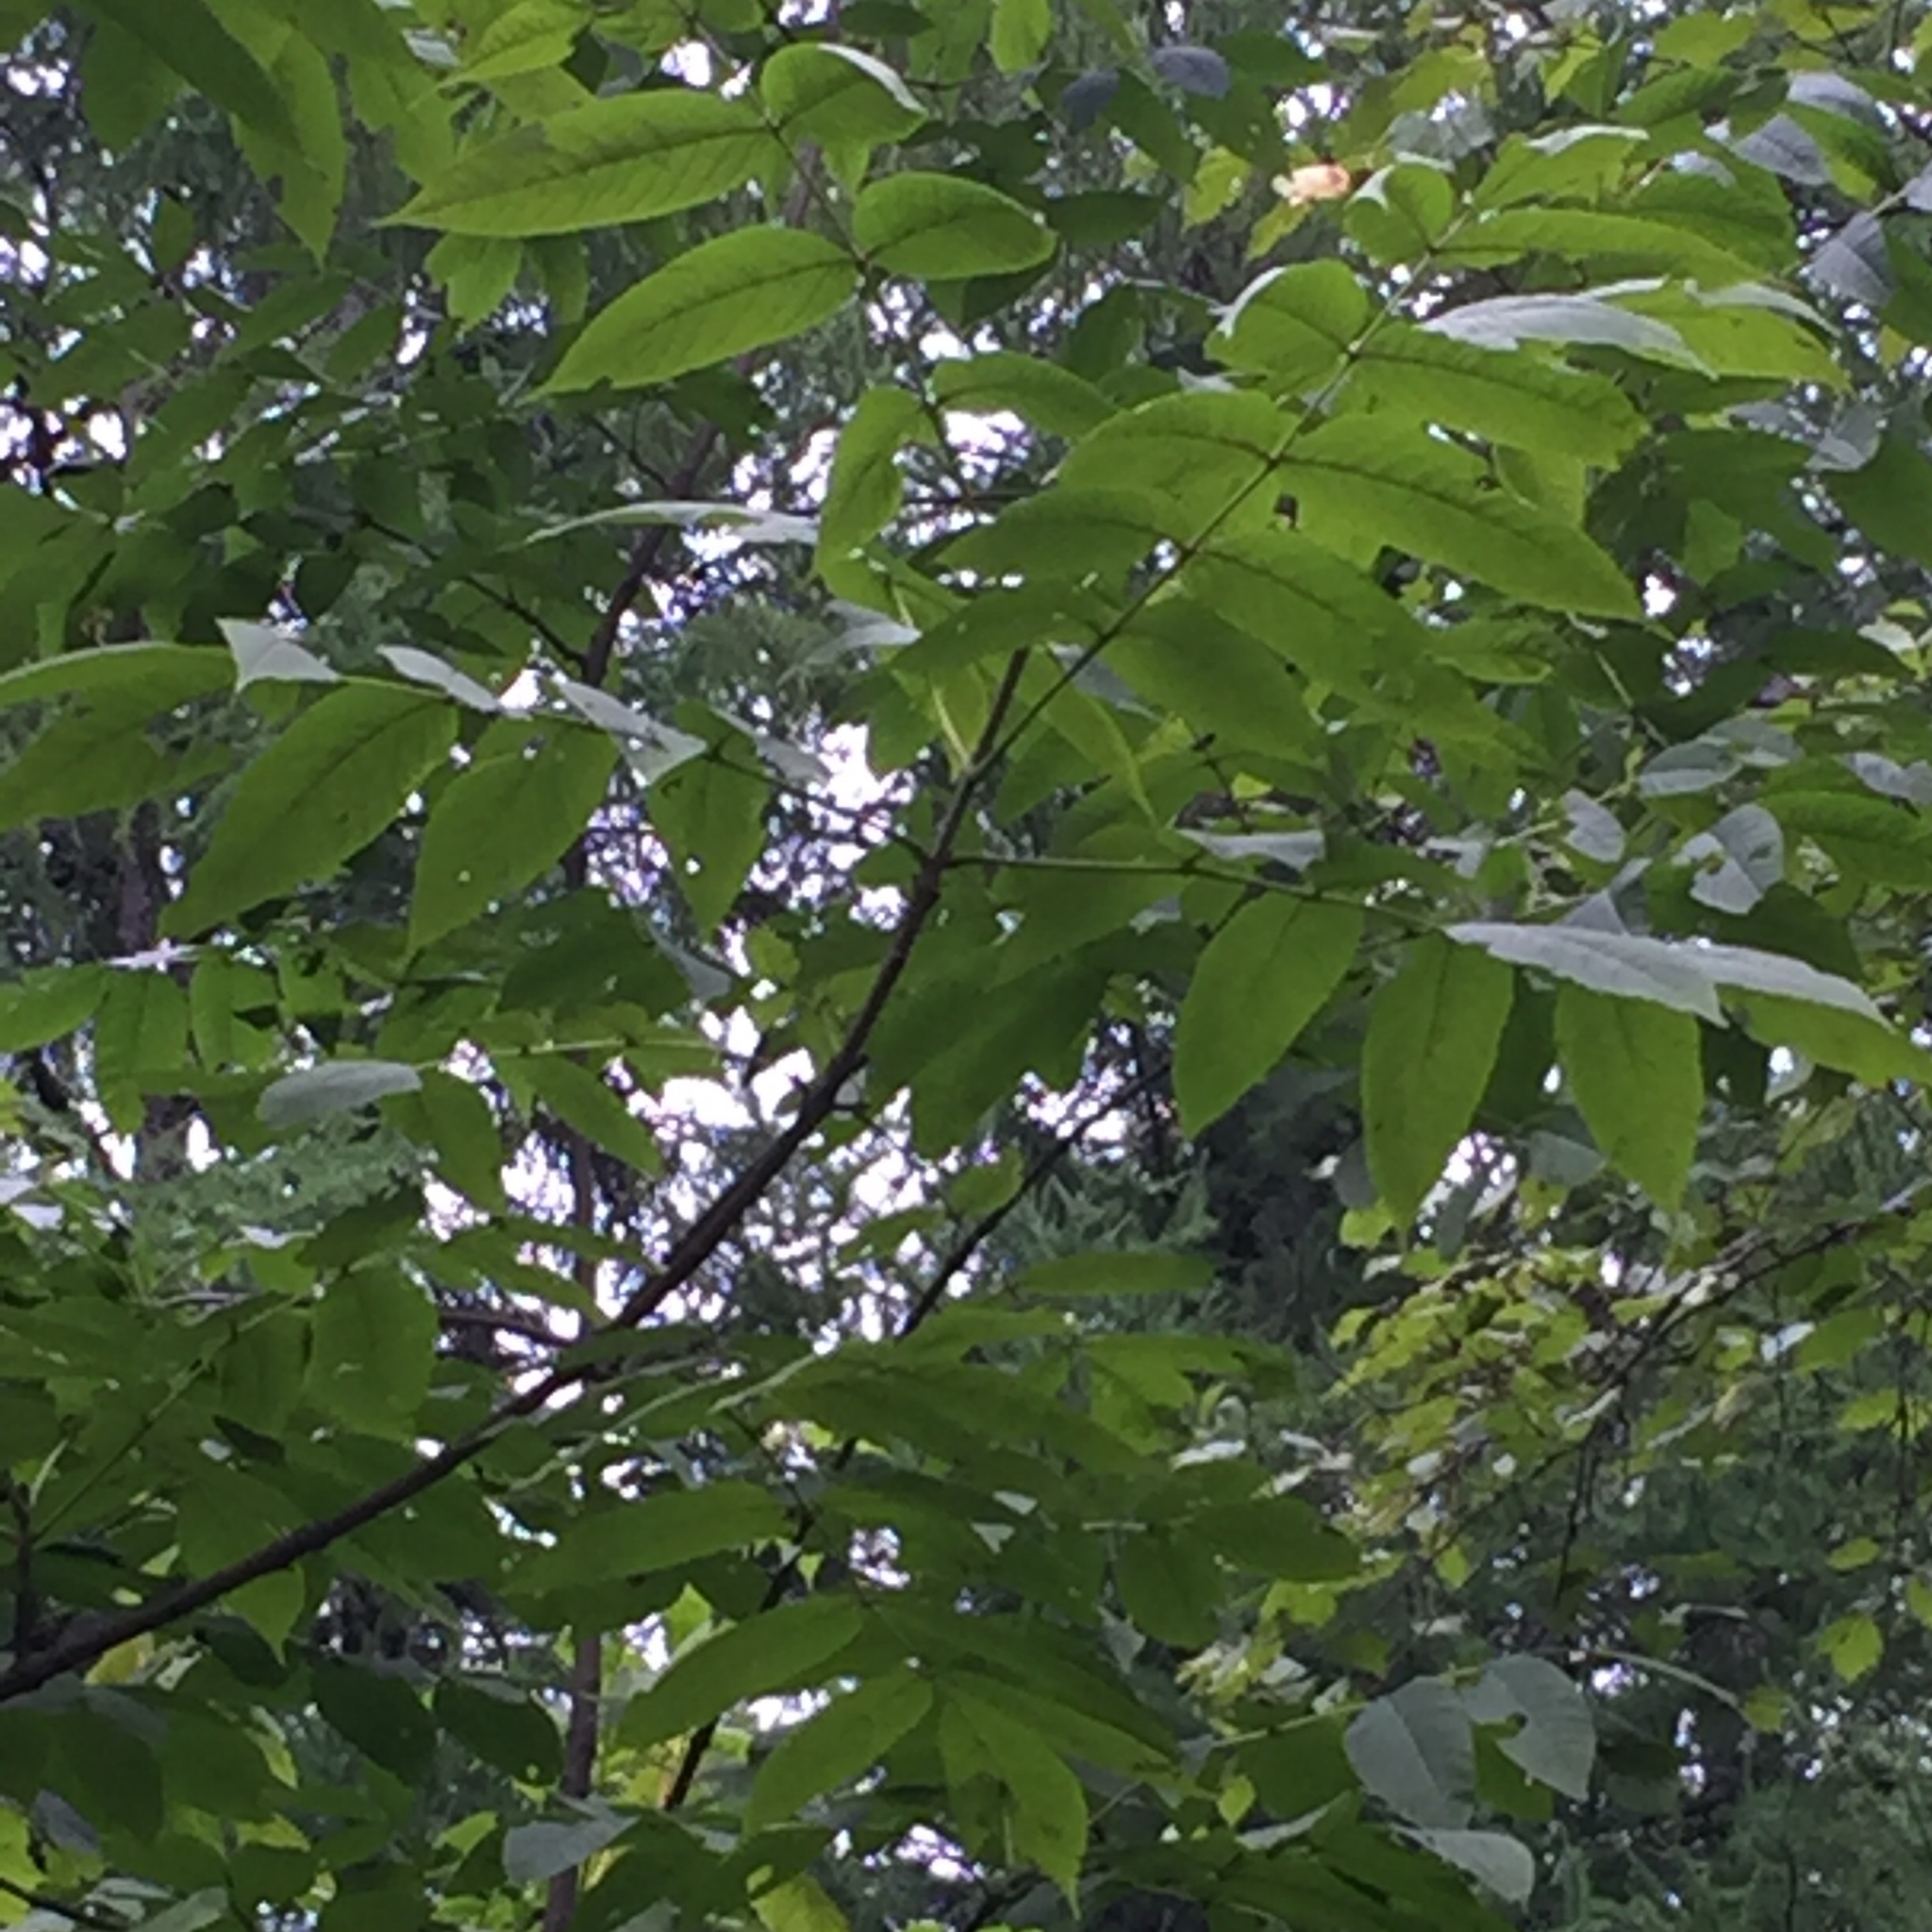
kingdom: Plantae
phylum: Tracheophyta
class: Magnoliopsida
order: Lamiales
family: Oleaceae
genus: Fraxinus
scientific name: Fraxinus nigra
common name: Black ash
